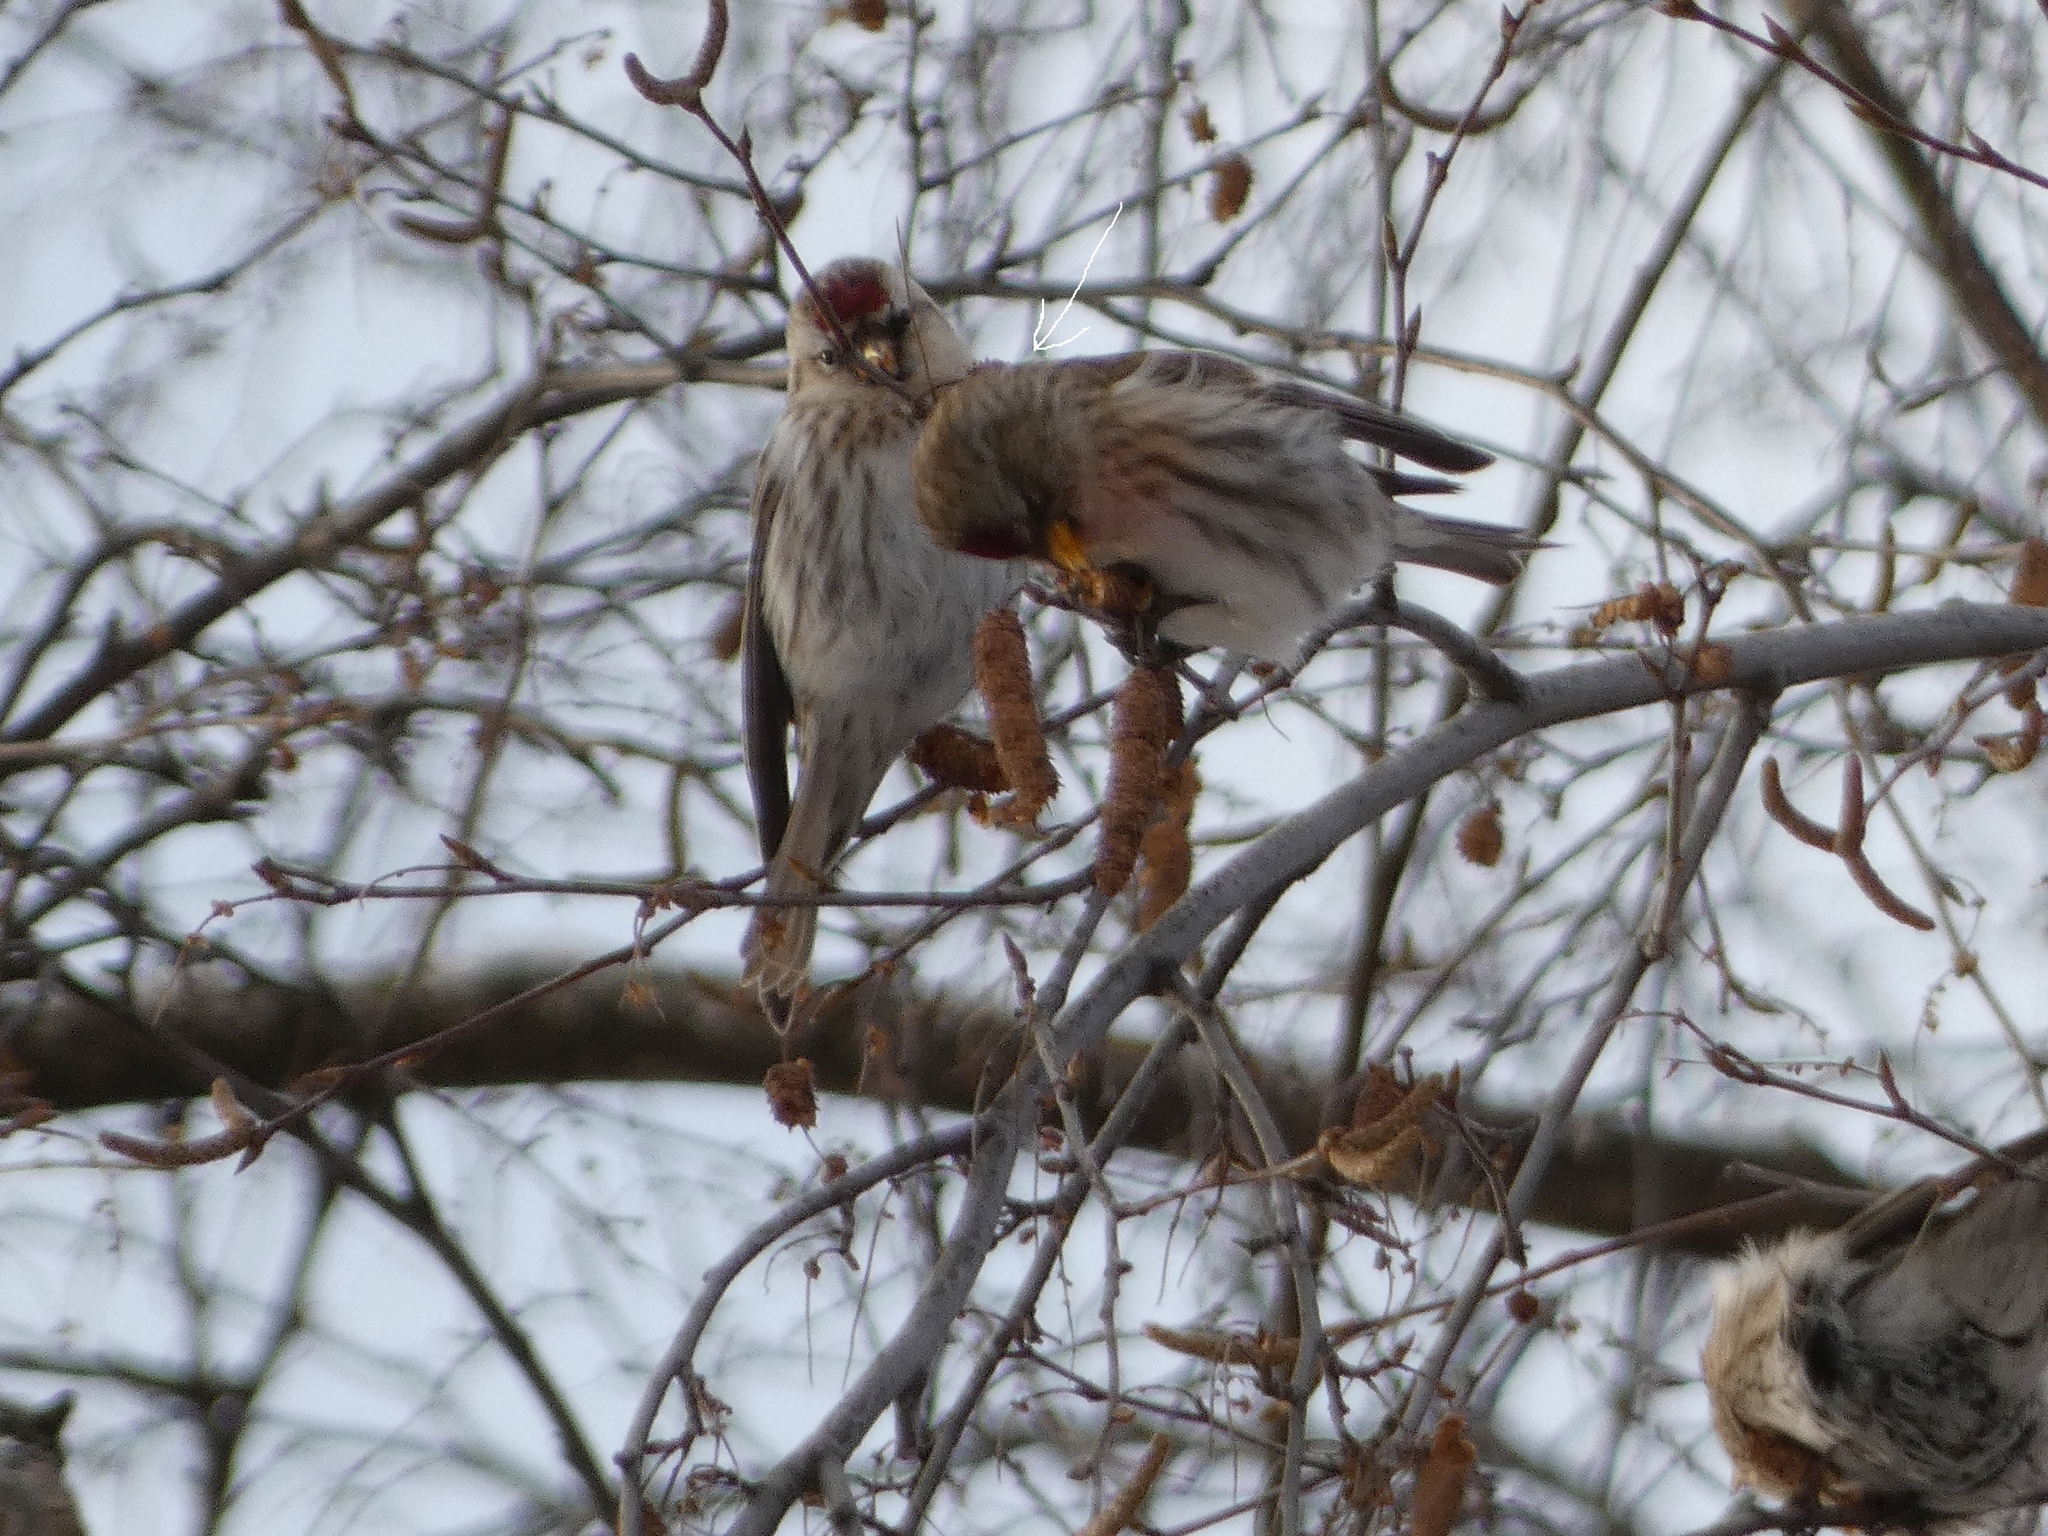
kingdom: Animalia
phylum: Chordata
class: Aves
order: Passeriformes
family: Fringillidae
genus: Acanthis
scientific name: Acanthis flammea
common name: Common redpoll
